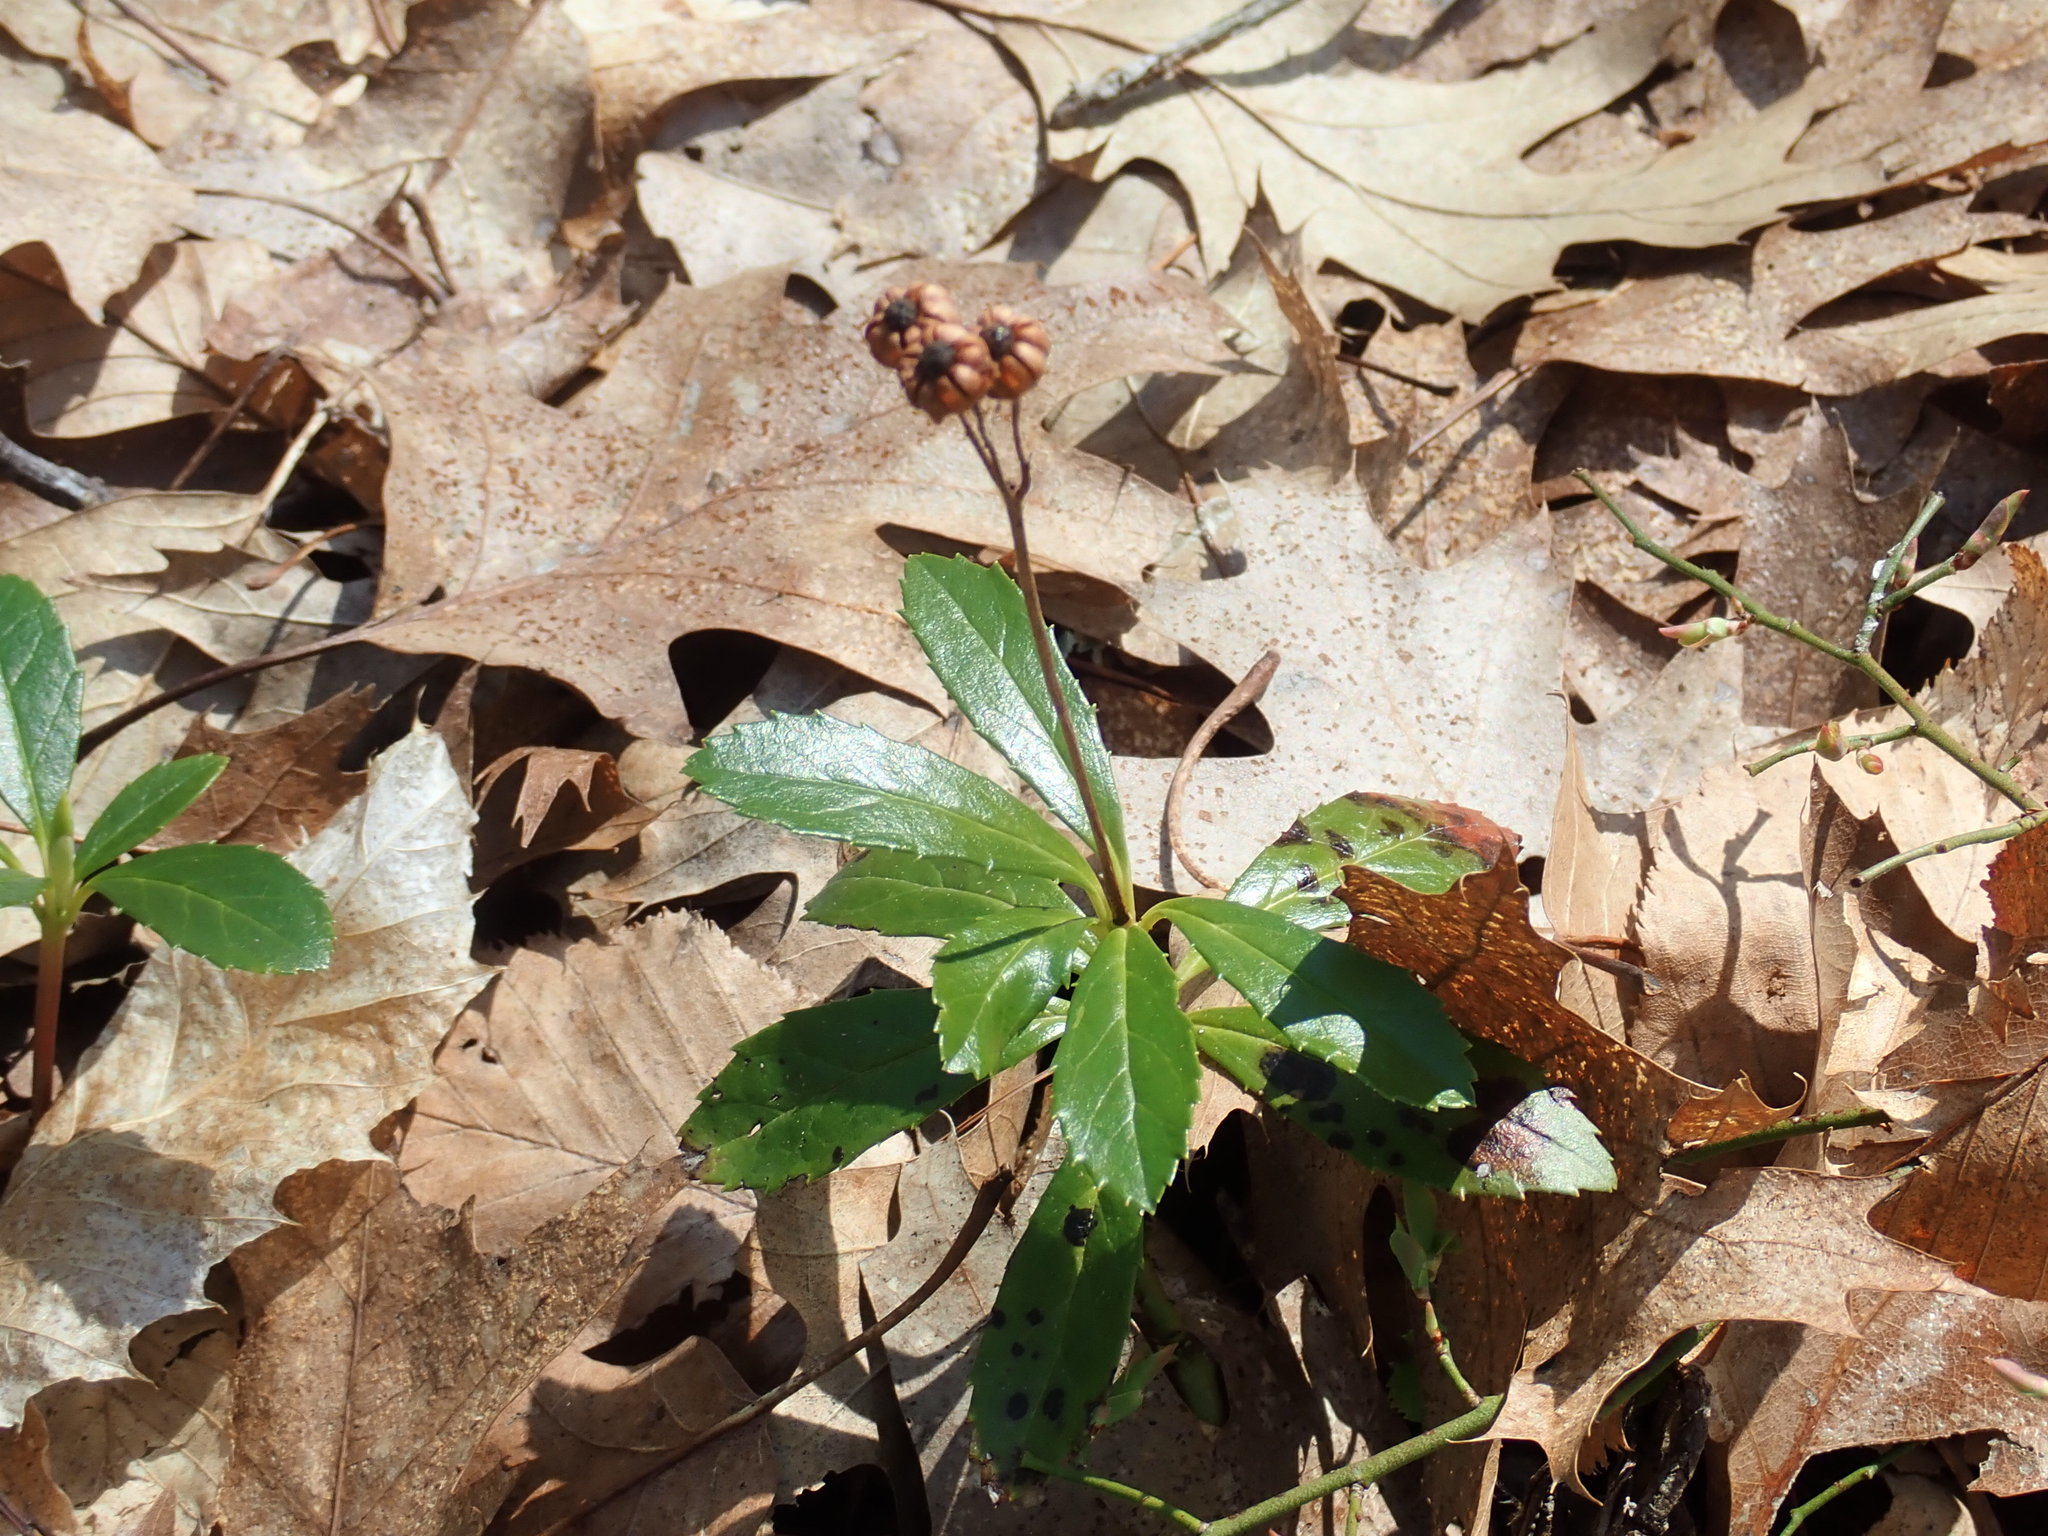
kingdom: Plantae
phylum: Tracheophyta
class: Magnoliopsida
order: Ericales
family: Ericaceae
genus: Chimaphila
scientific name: Chimaphila umbellata
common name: Pipsissewa
